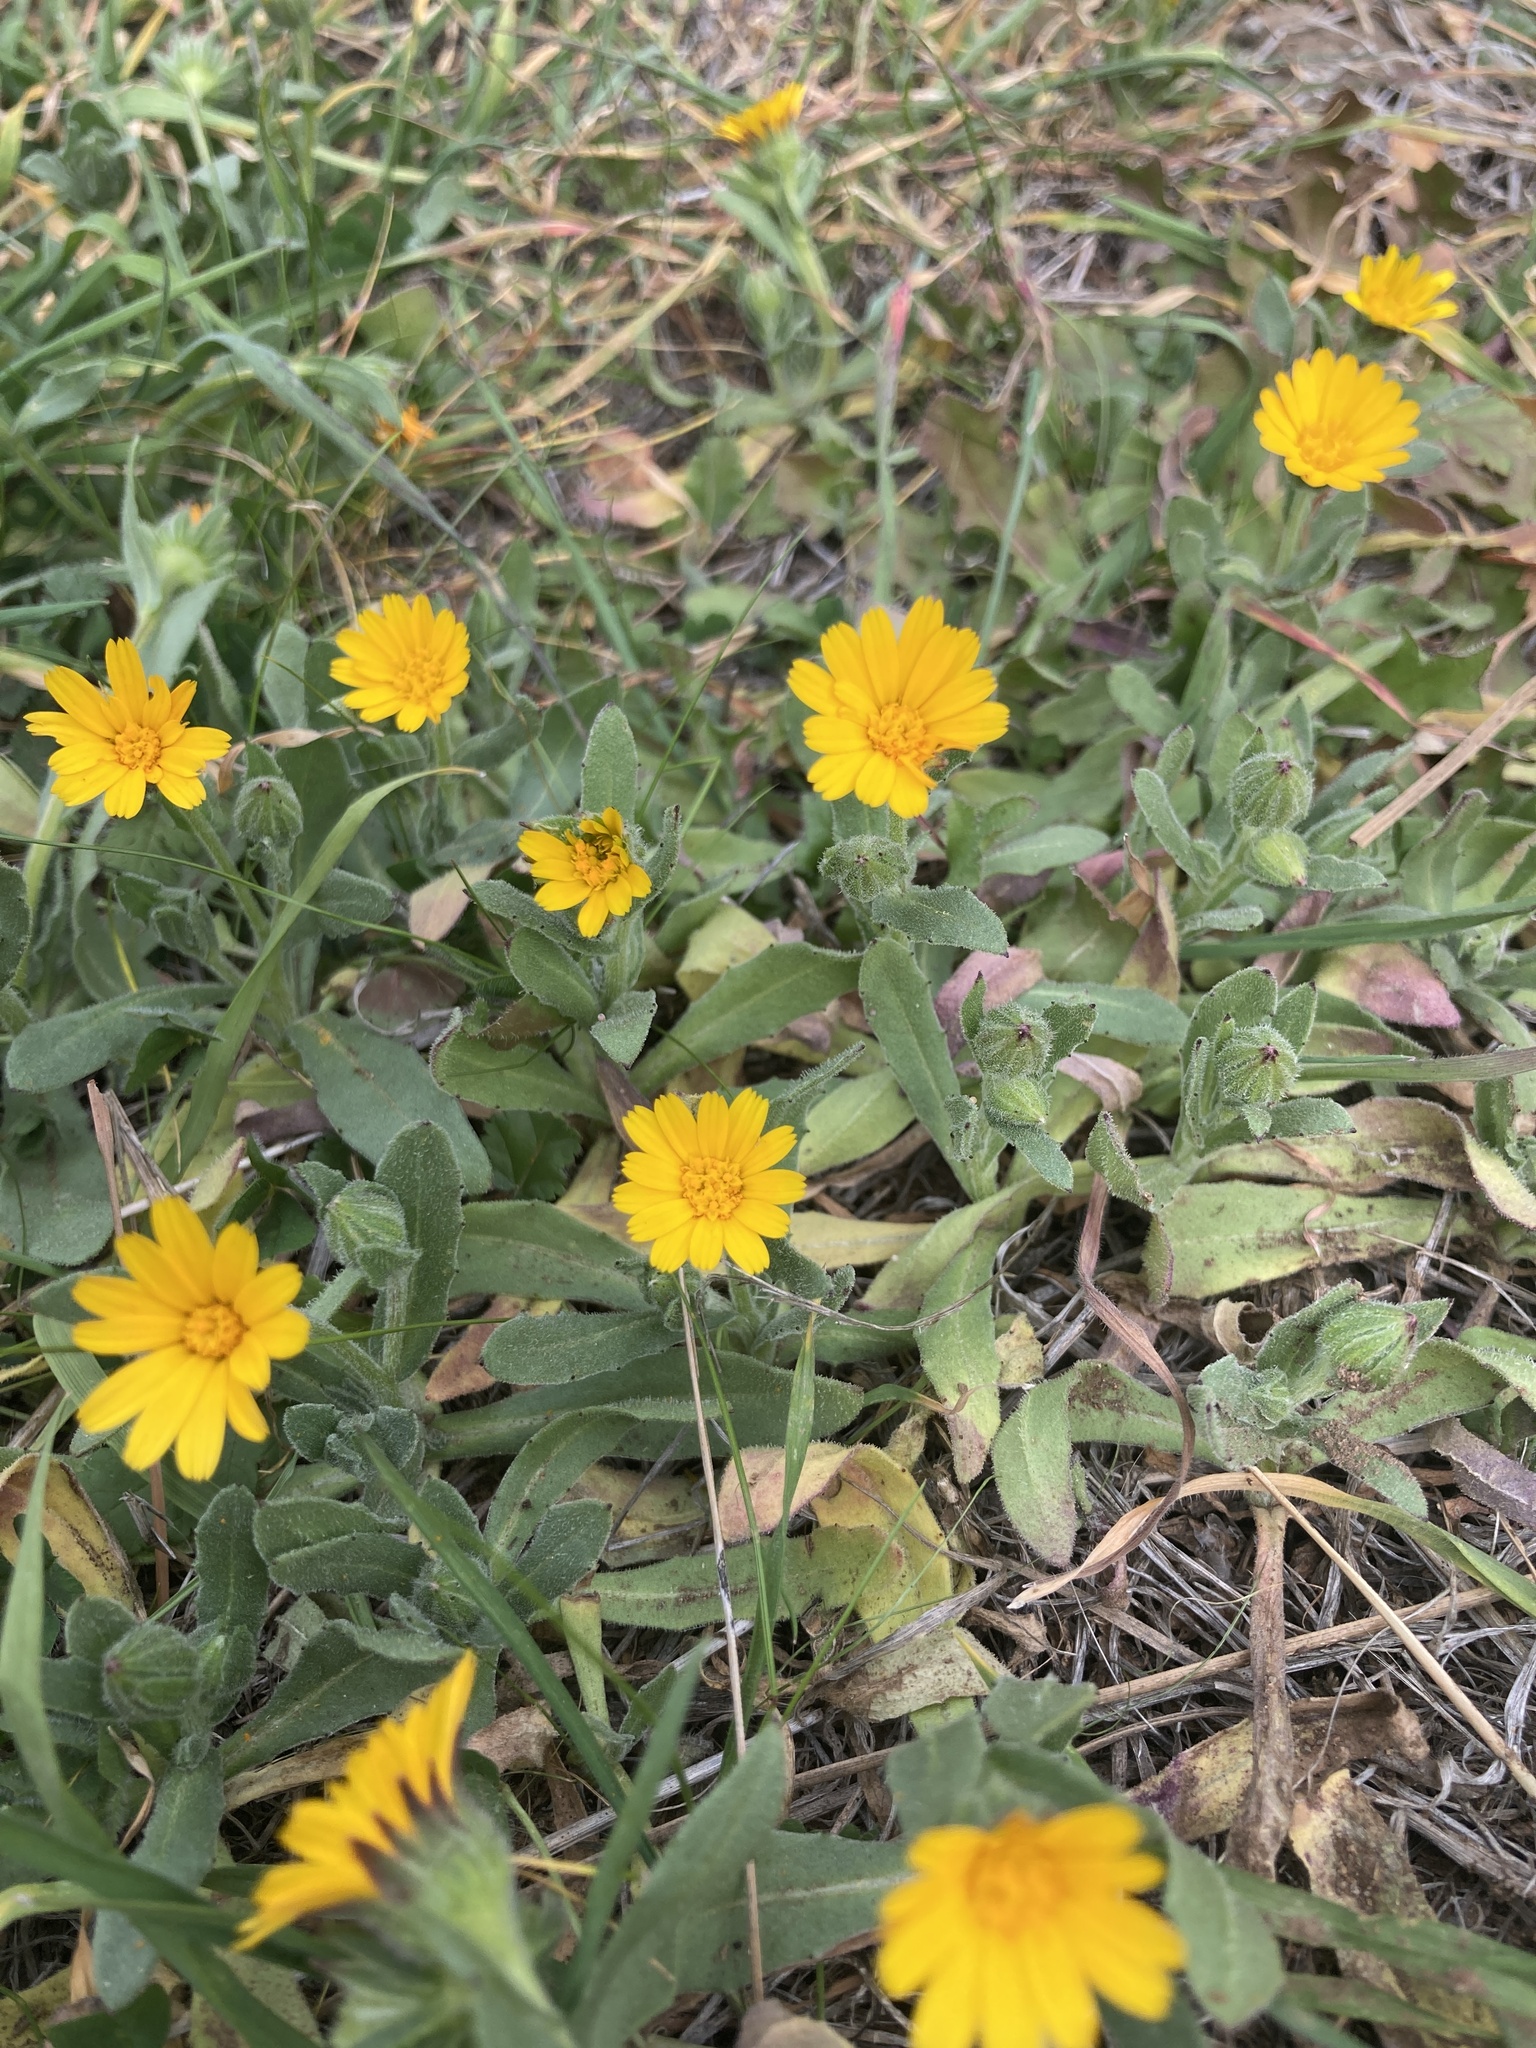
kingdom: Plantae
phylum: Tracheophyta
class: Magnoliopsida
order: Asterales
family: Asteraceae
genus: Calendula
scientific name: Calendula arvensis
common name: Field marigold
